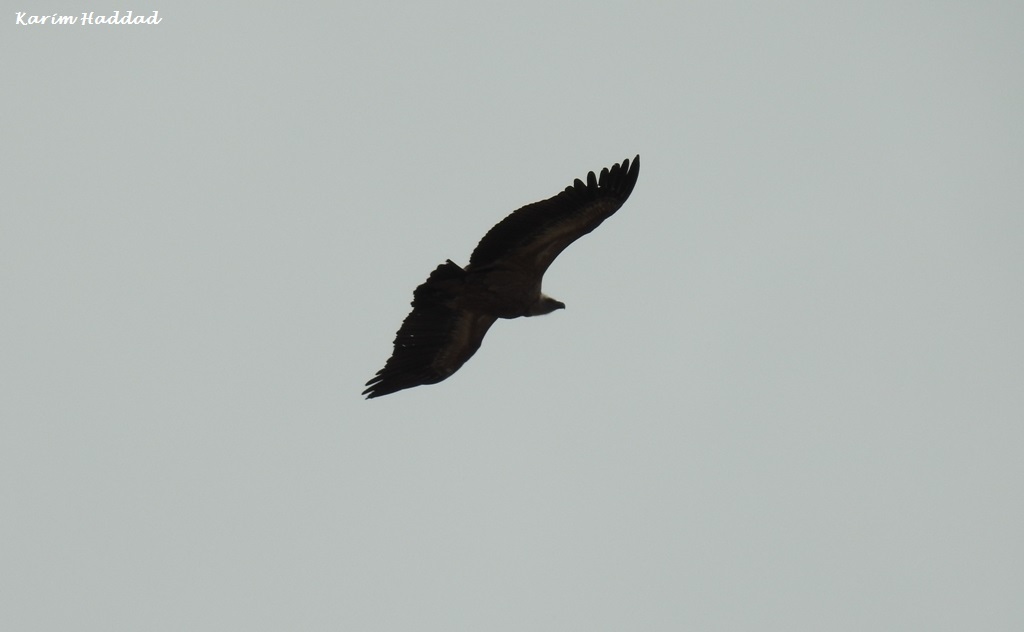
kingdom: Animalia
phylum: Chordata
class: Aves
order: Accipitriformes
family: Accipitridae
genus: Gyps
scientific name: Gyps fulvus
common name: Griffon vulture
